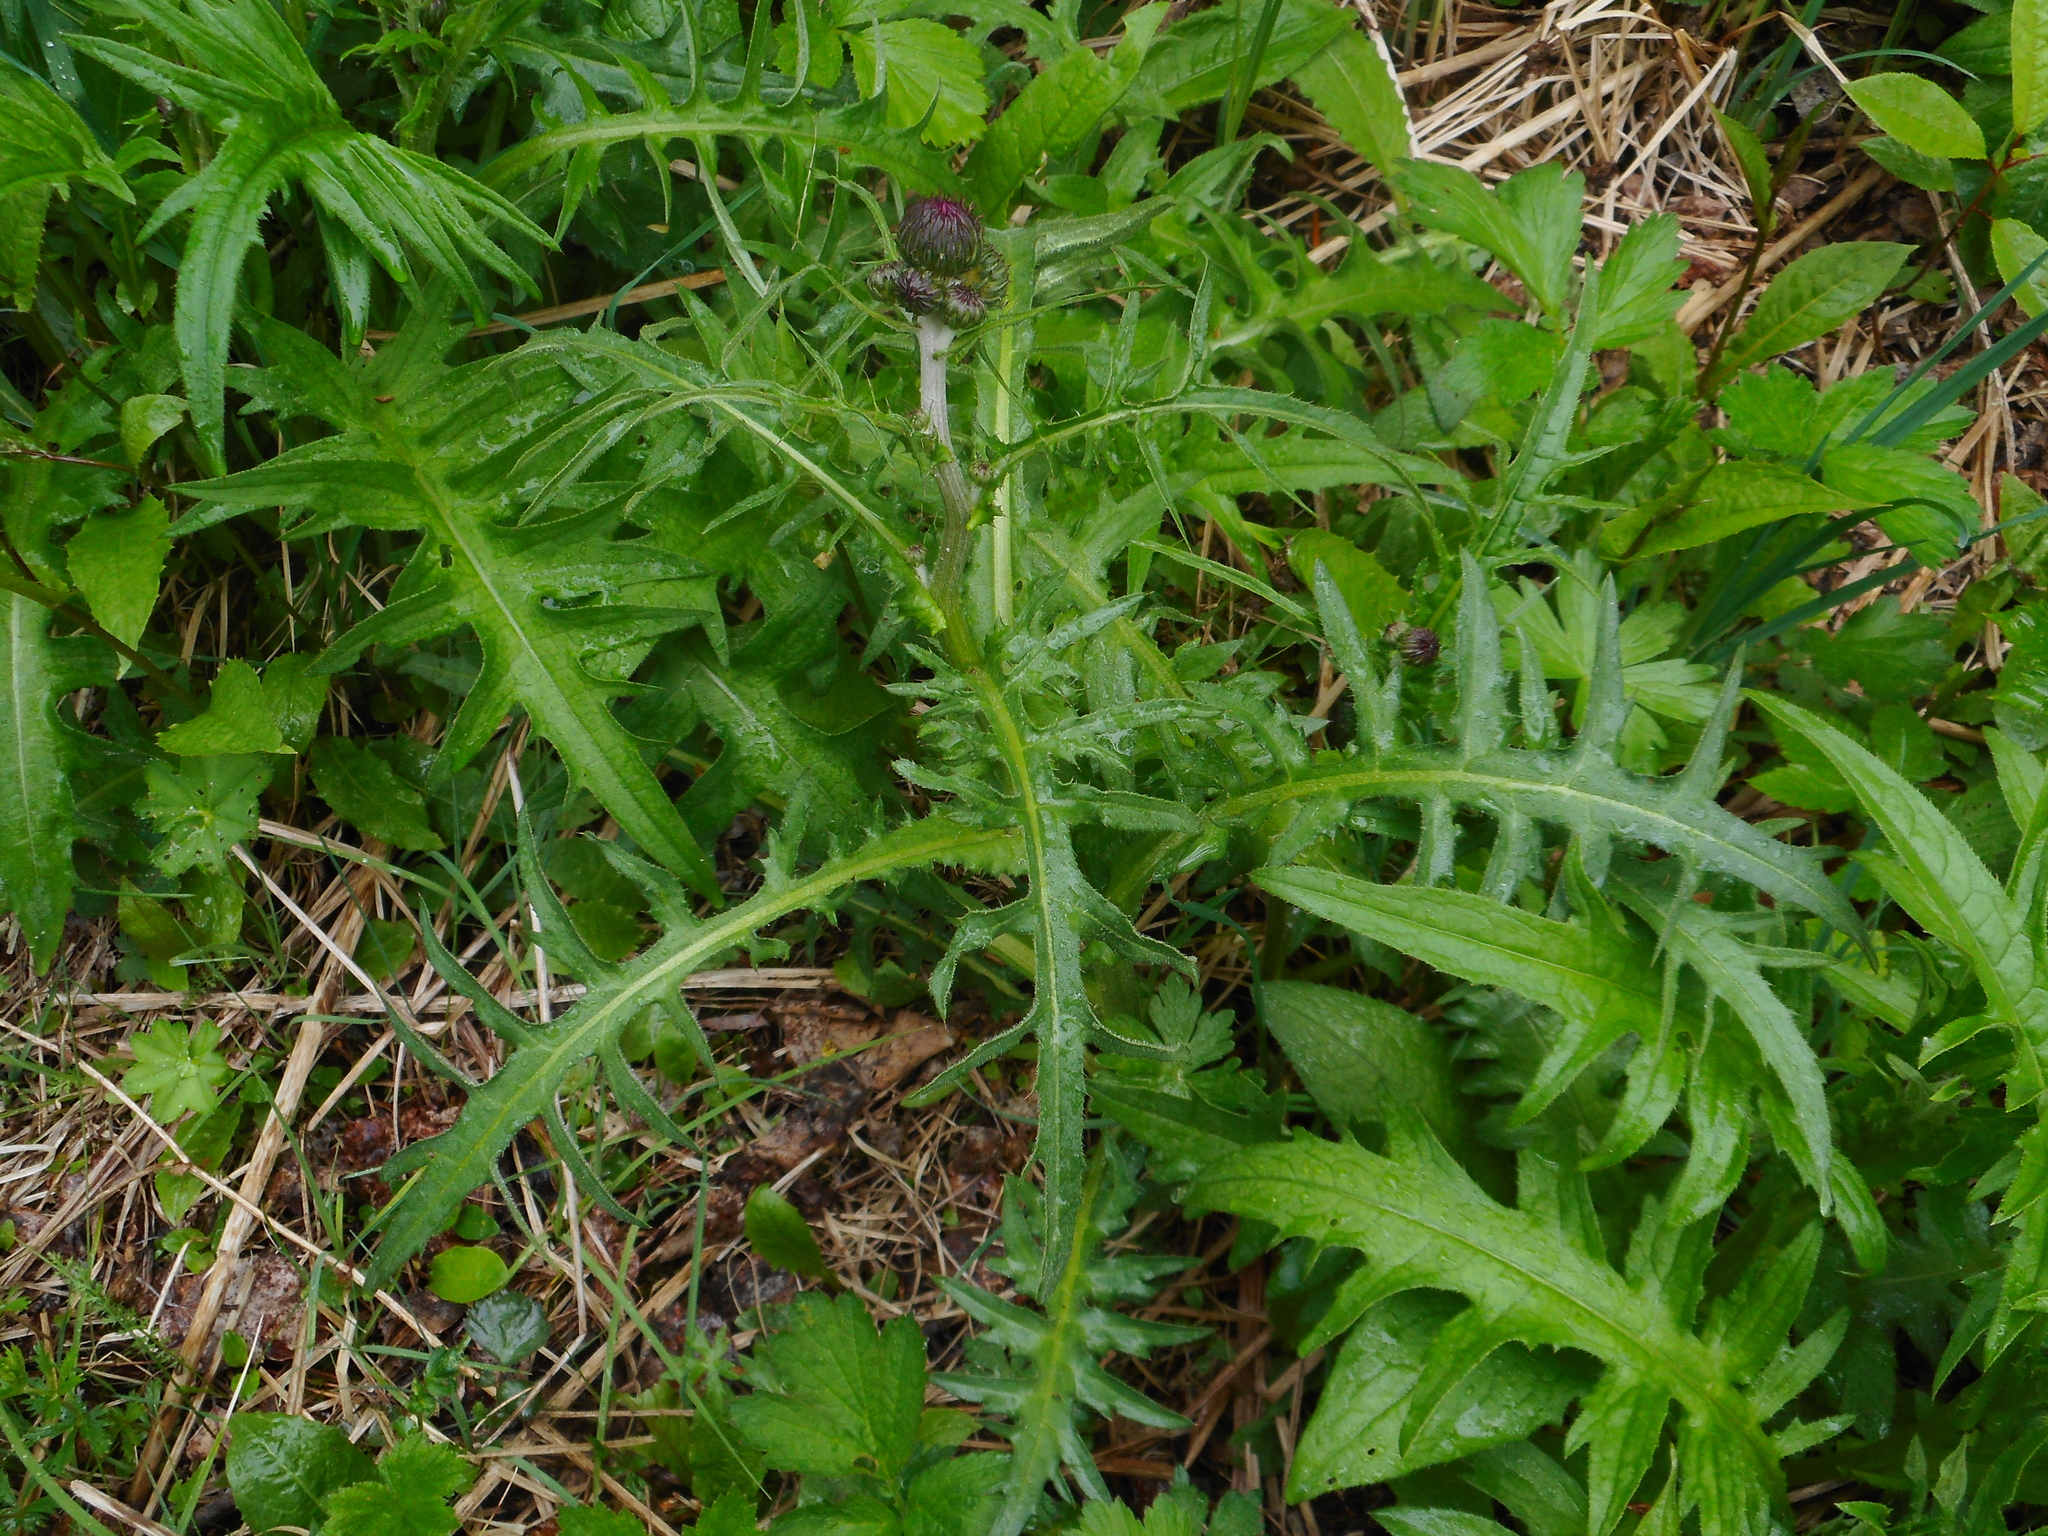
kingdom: Plantae
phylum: Tracheophyta
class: Magnoliopsida
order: Asterales
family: Asteraceae
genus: Cirsium
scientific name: Cirsium rivulare
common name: Brook thistle
